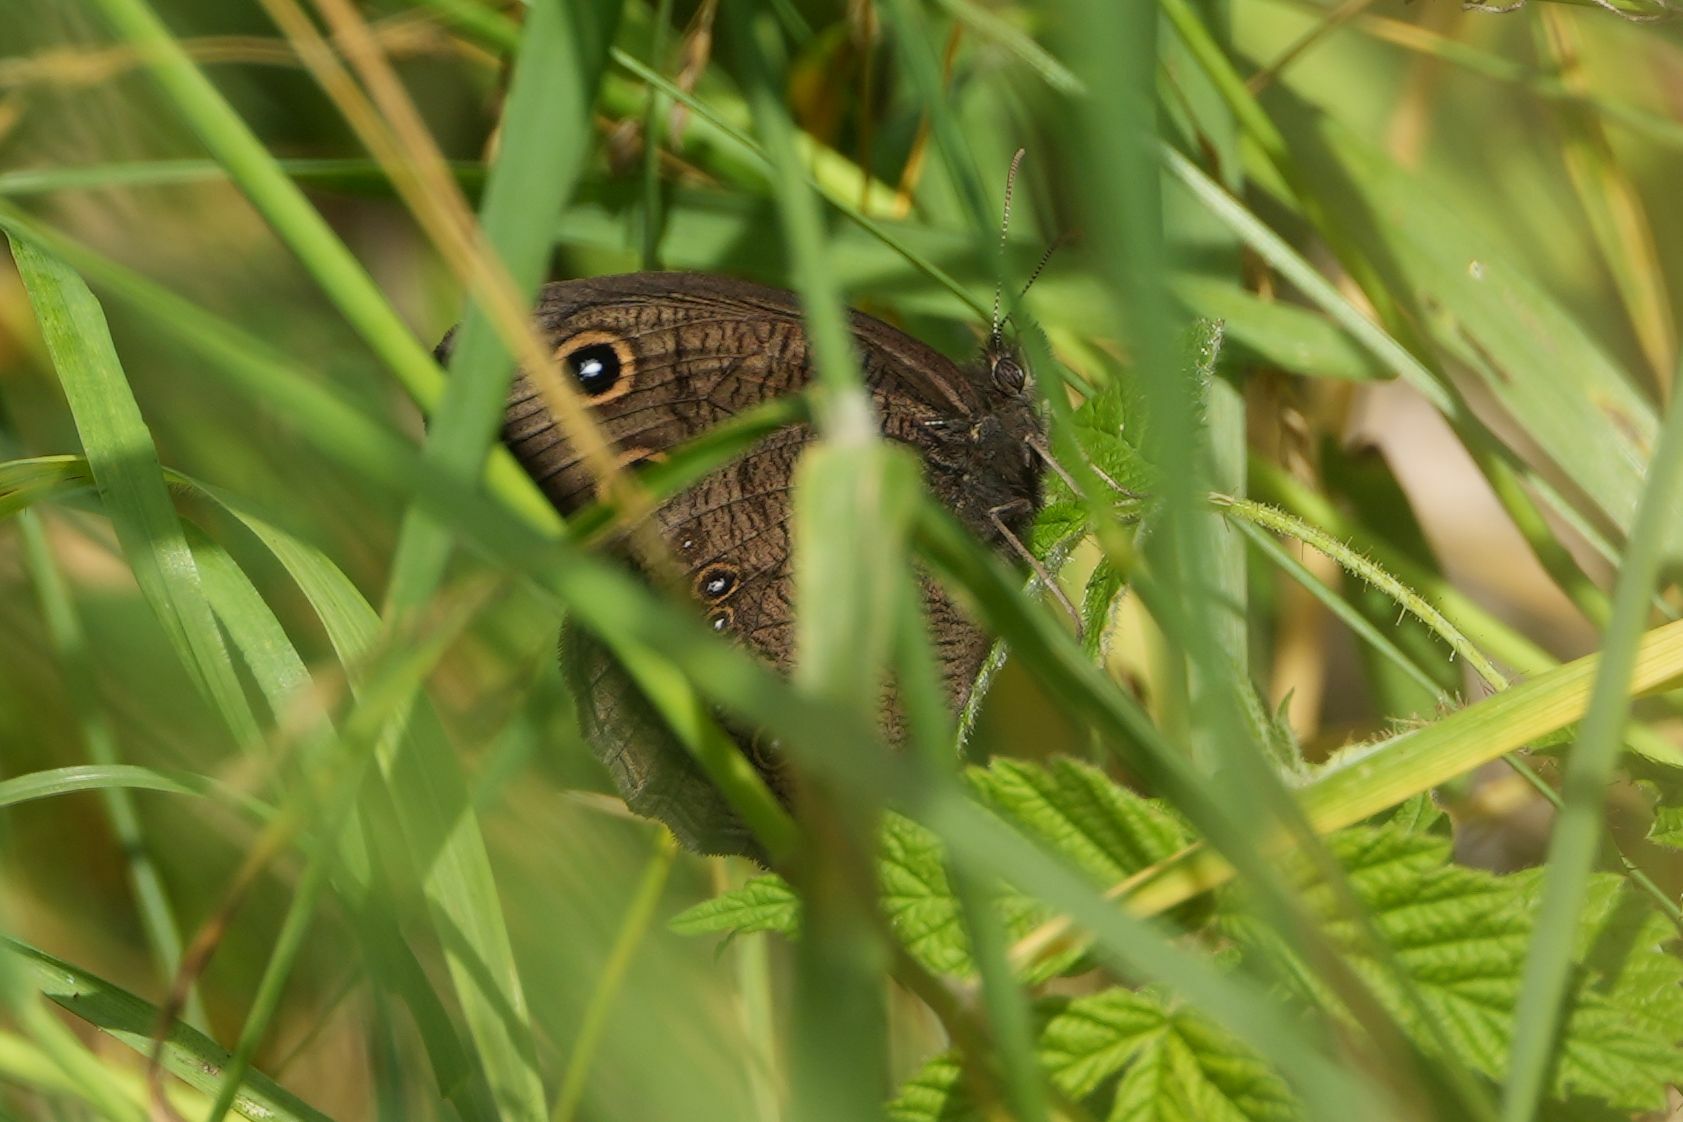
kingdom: Animalia
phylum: Arthropoda
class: Insecta
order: Lepidoptera
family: Nymphalidae
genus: Cercyonis
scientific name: Cercyonis pegala
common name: Common wood-nymph
